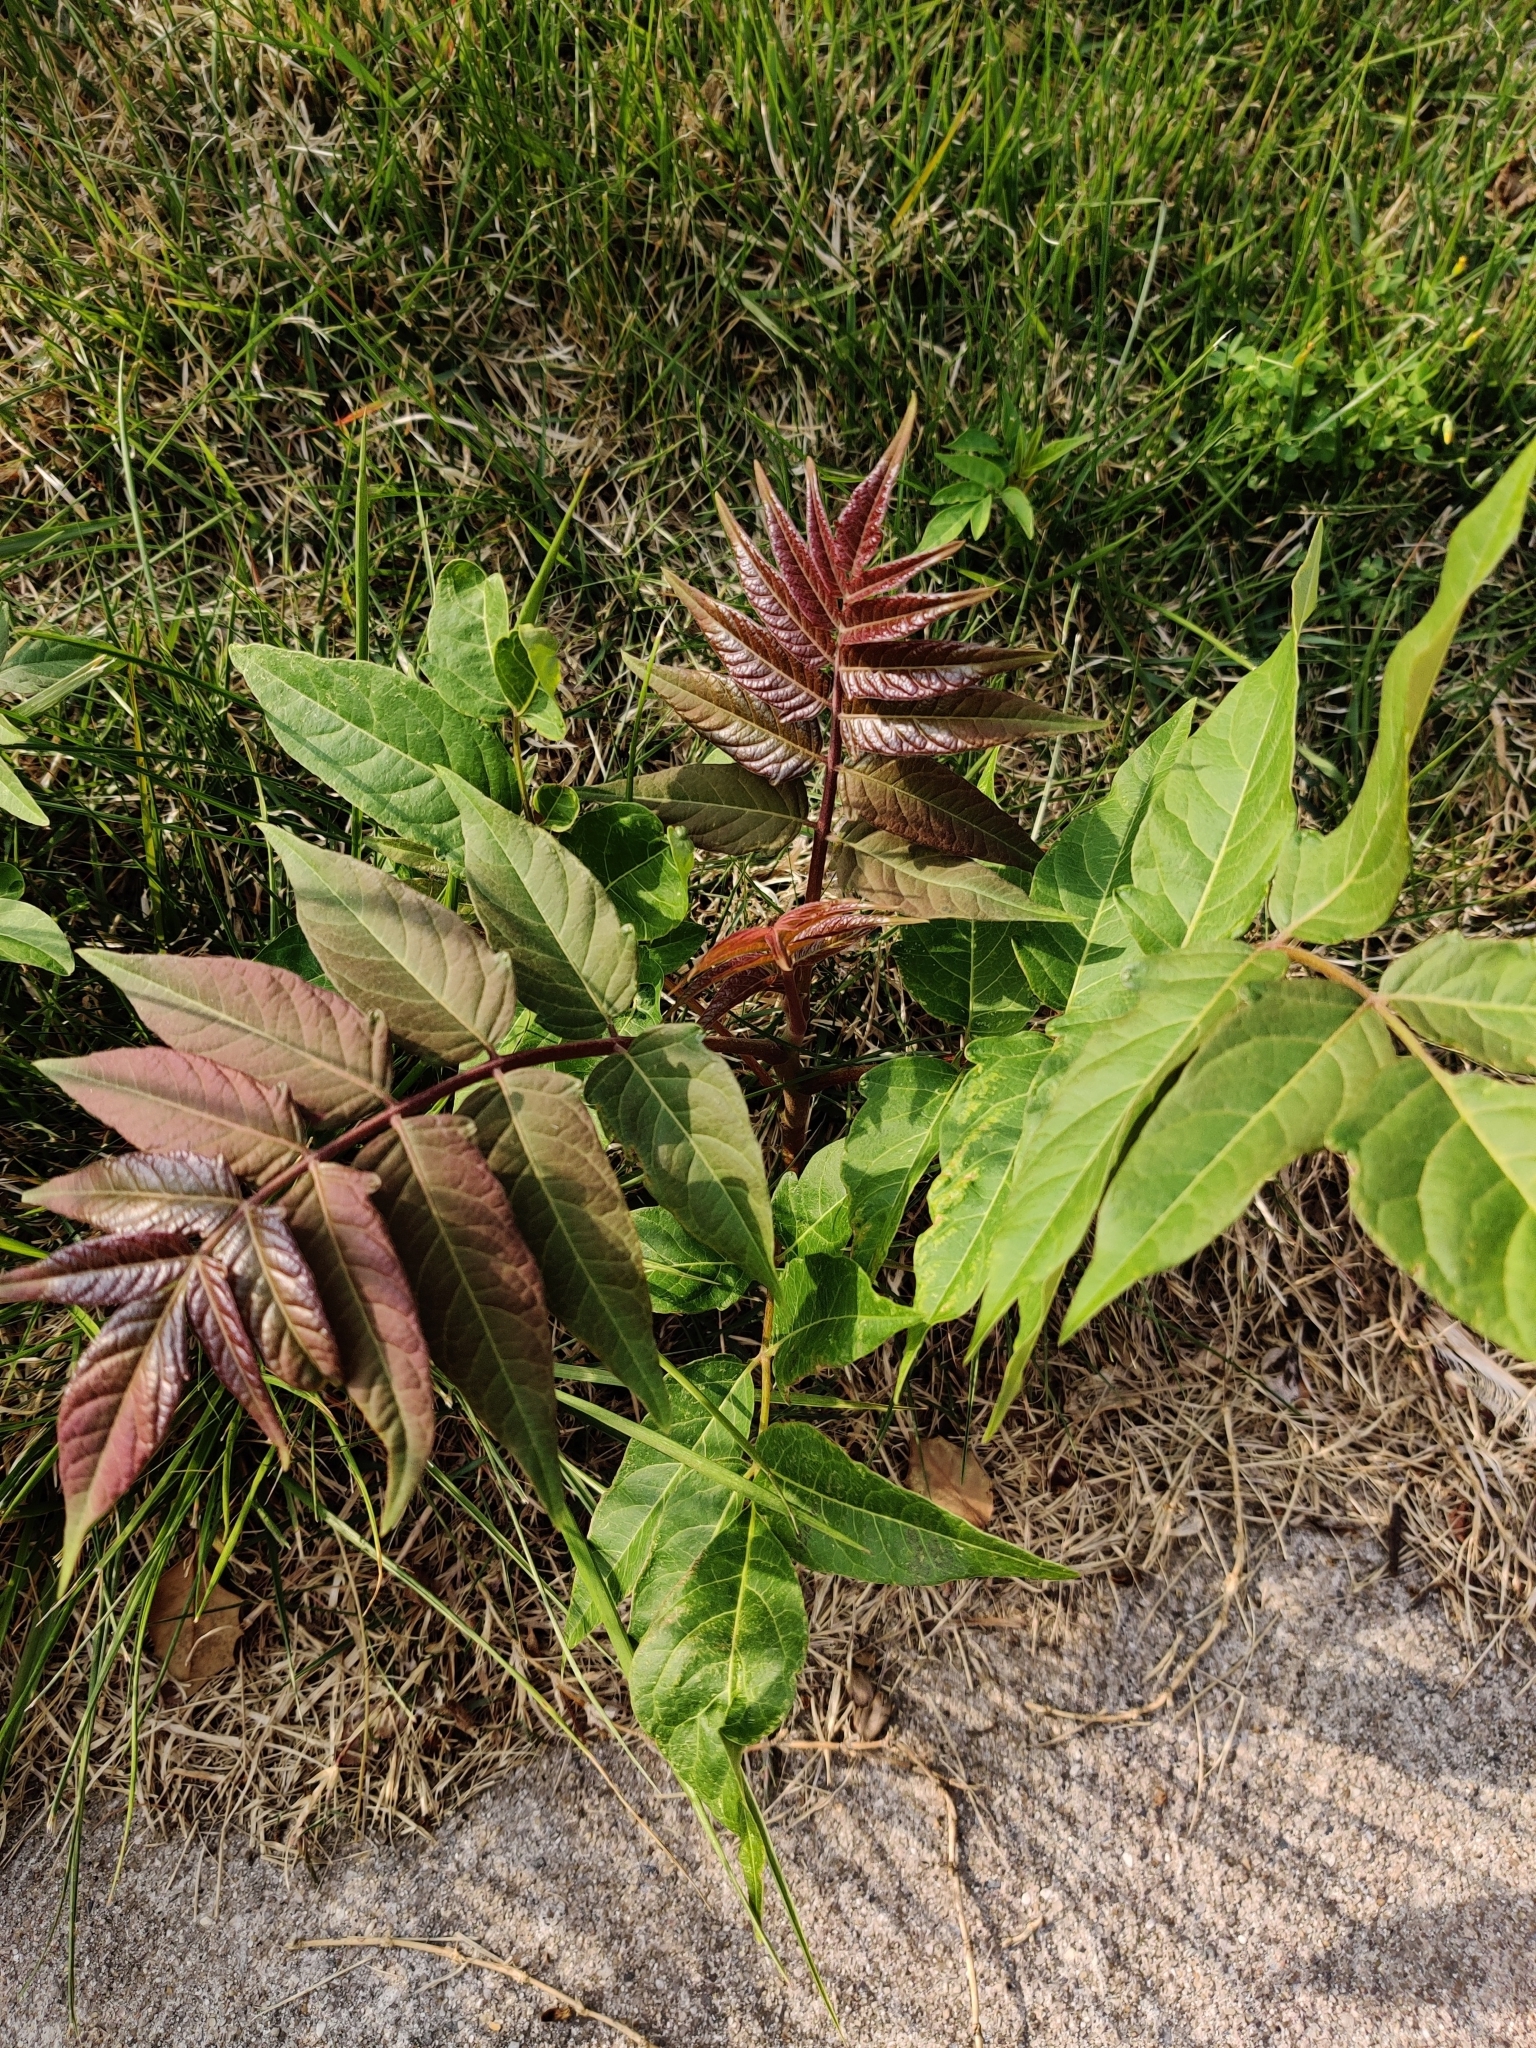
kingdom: Plantae
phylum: Tracheophyta
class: Magnoliopsida
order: Sapindales
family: Simaroubaceae
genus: Ailanthus
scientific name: Ailanthus altissima
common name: Tree-of-heaven
